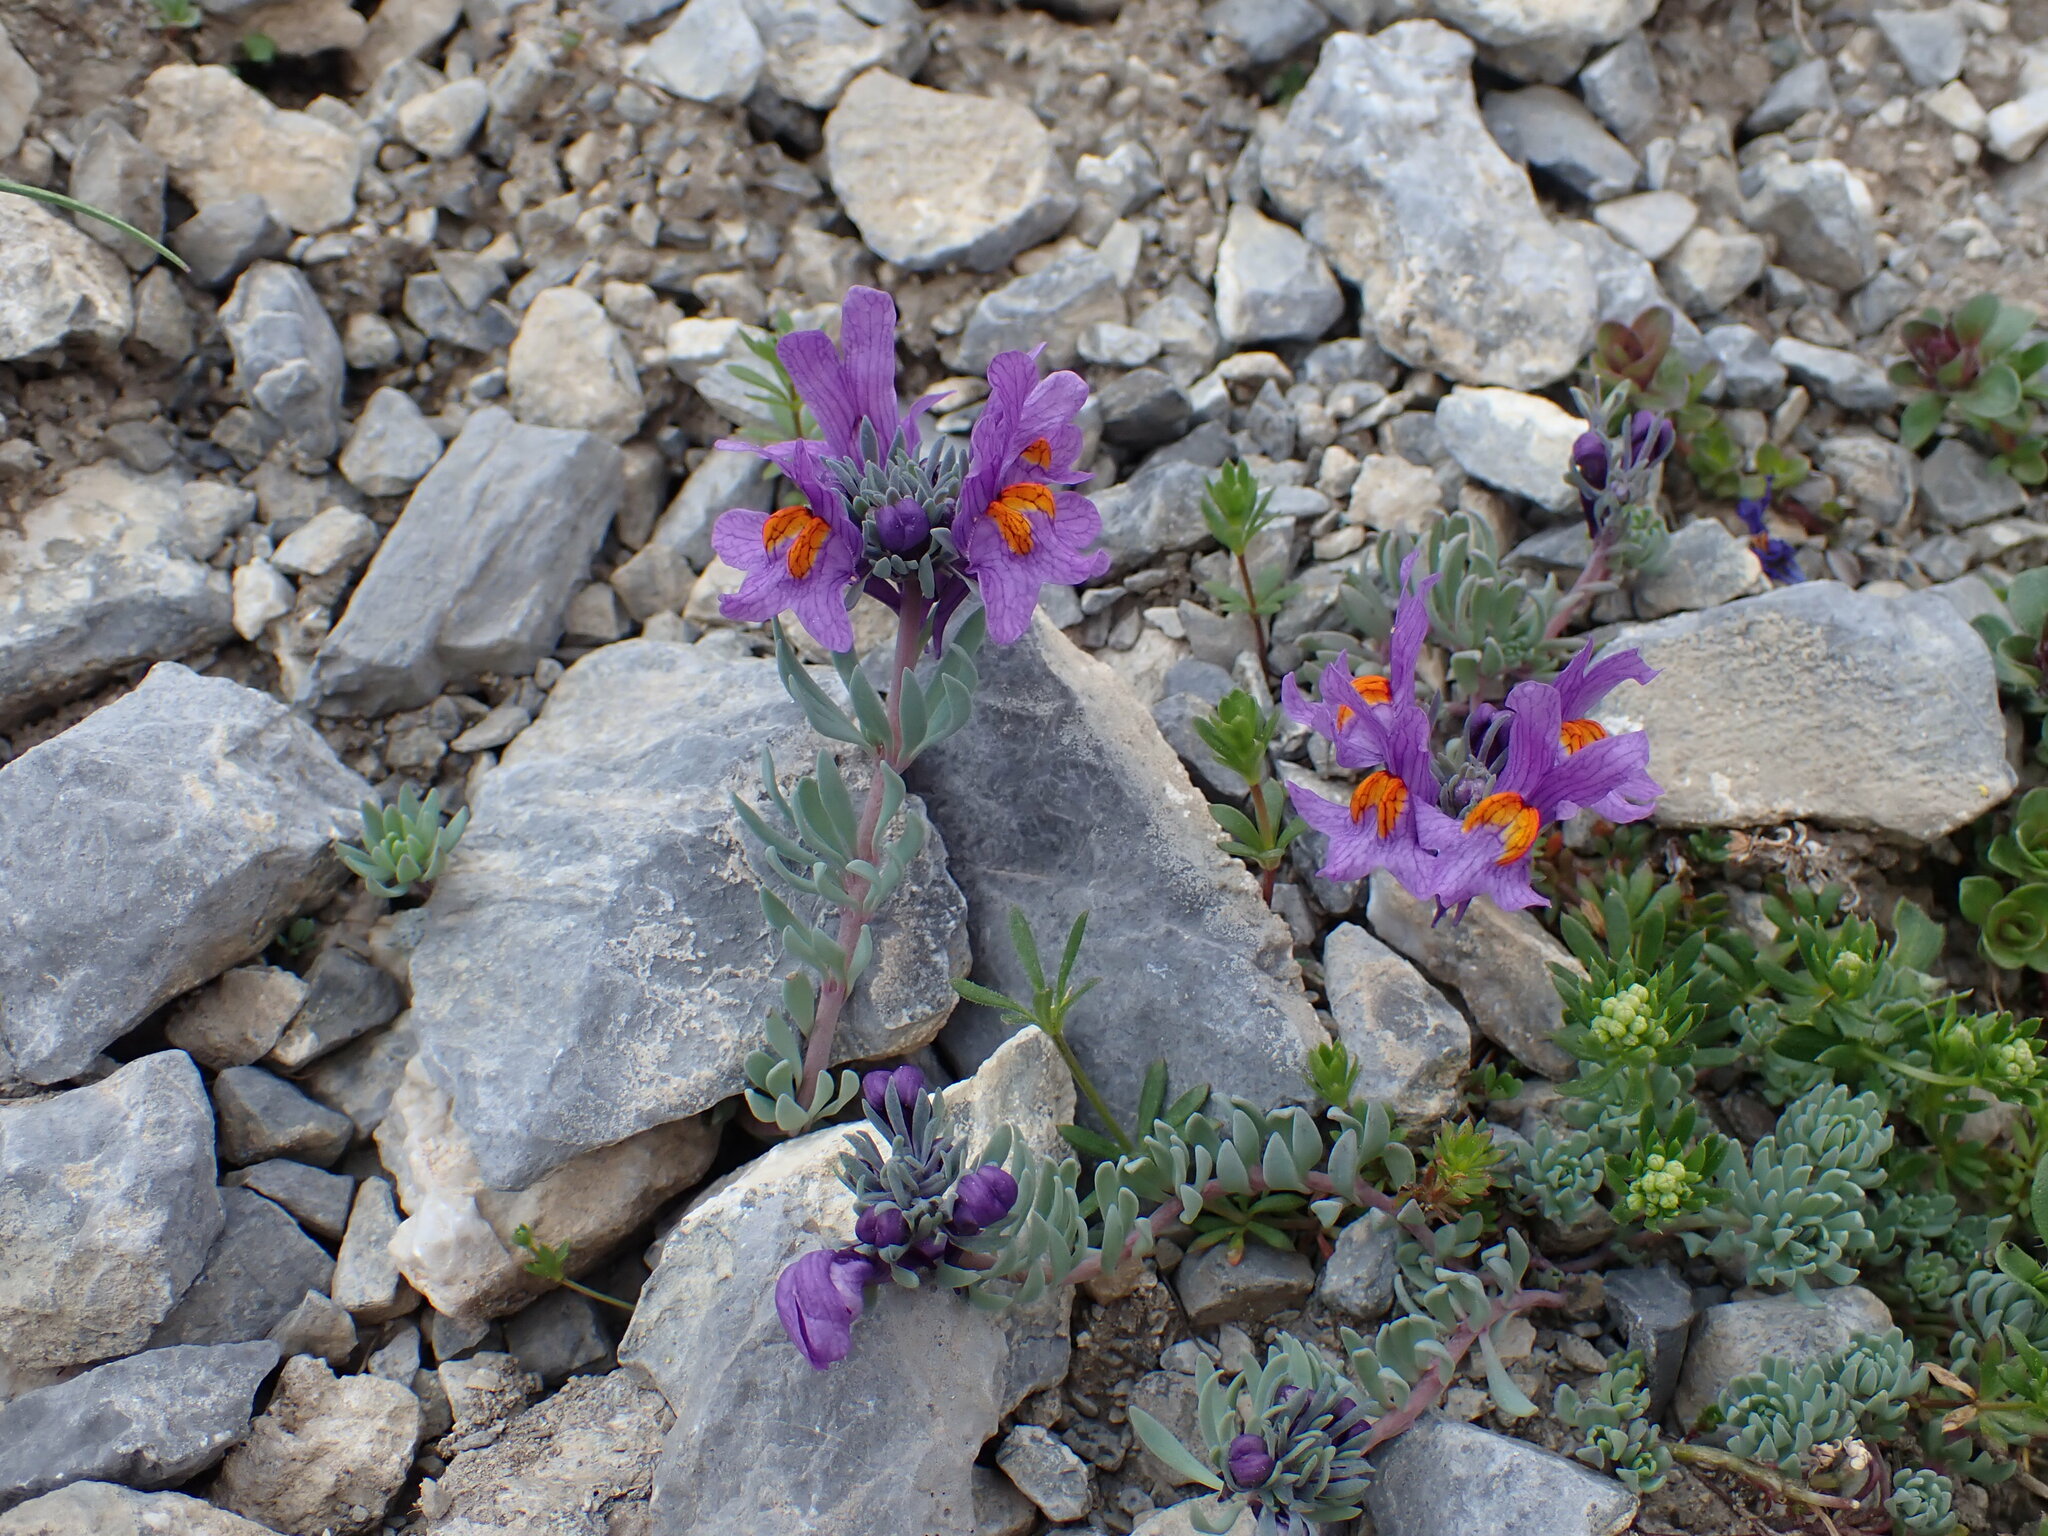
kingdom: Plantae
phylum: Tracheophyta
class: Magnoliopsida
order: Lamiales
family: Plantaginaceae
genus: Linaria
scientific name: Linaria alpina
